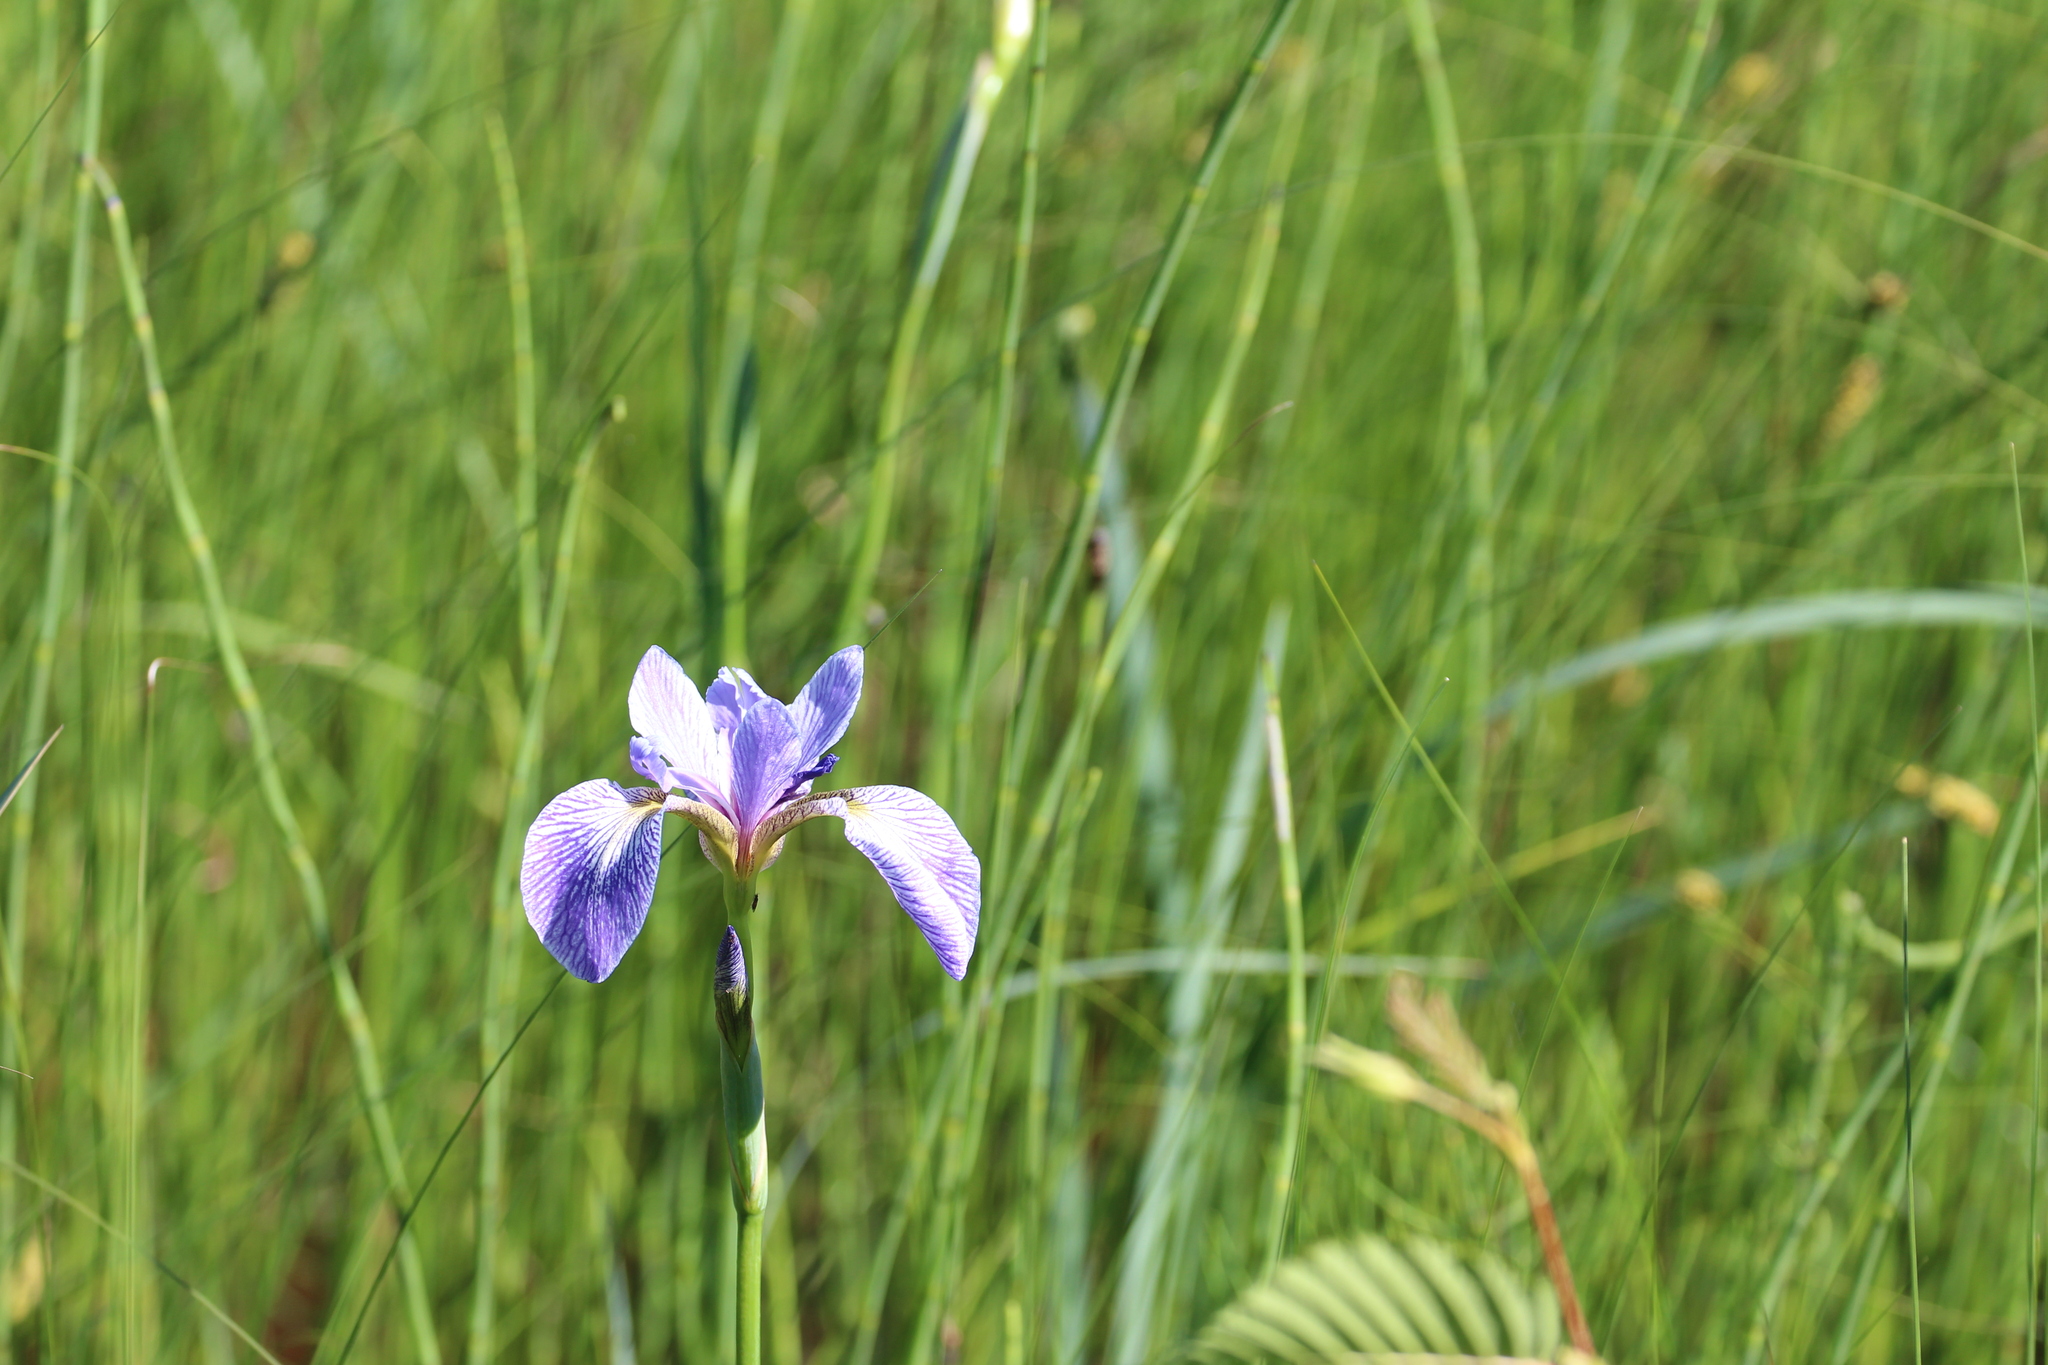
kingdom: Plantae
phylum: Tracheophyta
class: Liliopsida
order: Asparagales
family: Iridaceae
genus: Iris
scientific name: Iris versicolor
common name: Purple iris
